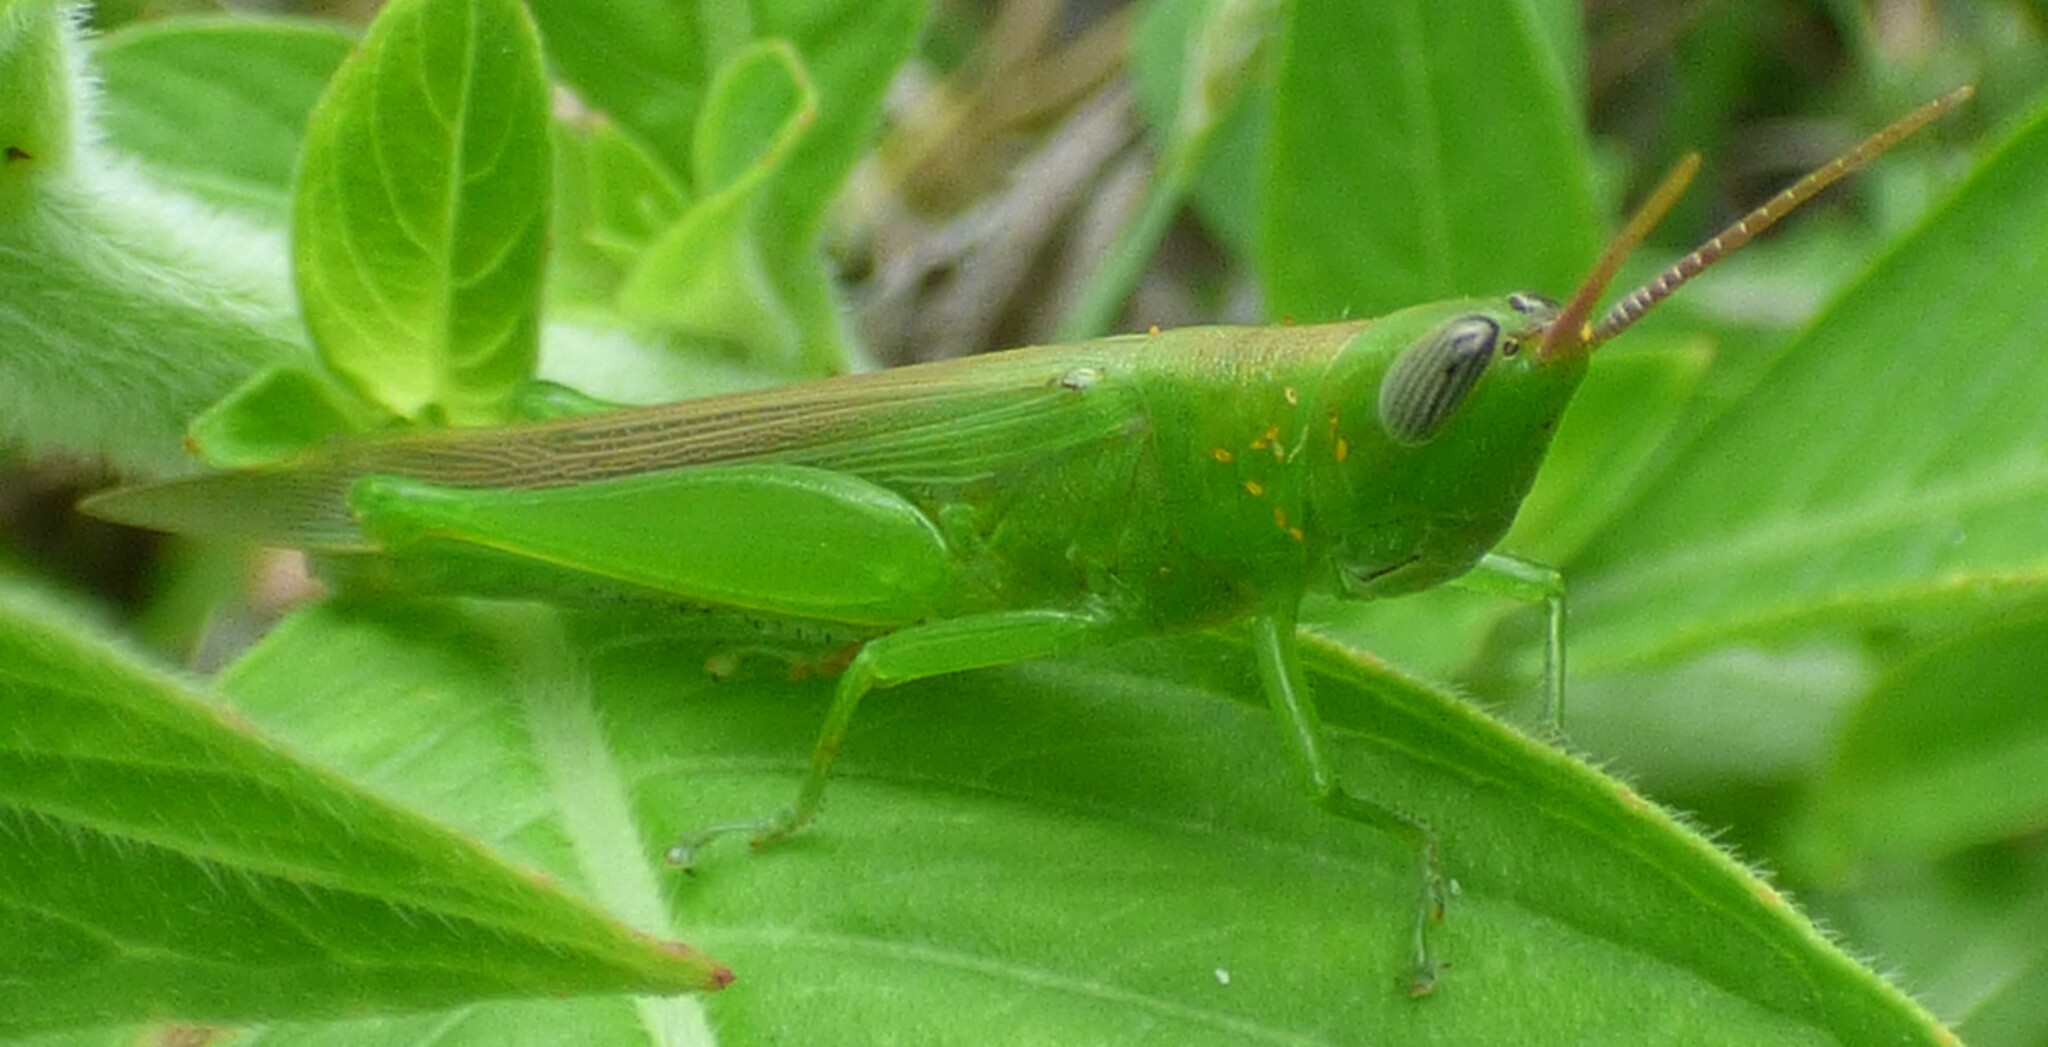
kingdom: Animalia
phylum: Arthropoda
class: Insecta
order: Orthoptera
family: Acrididae
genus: Stenacris
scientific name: Stenacris vitreipennis
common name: Glassy-winged toothpick grasshopper
